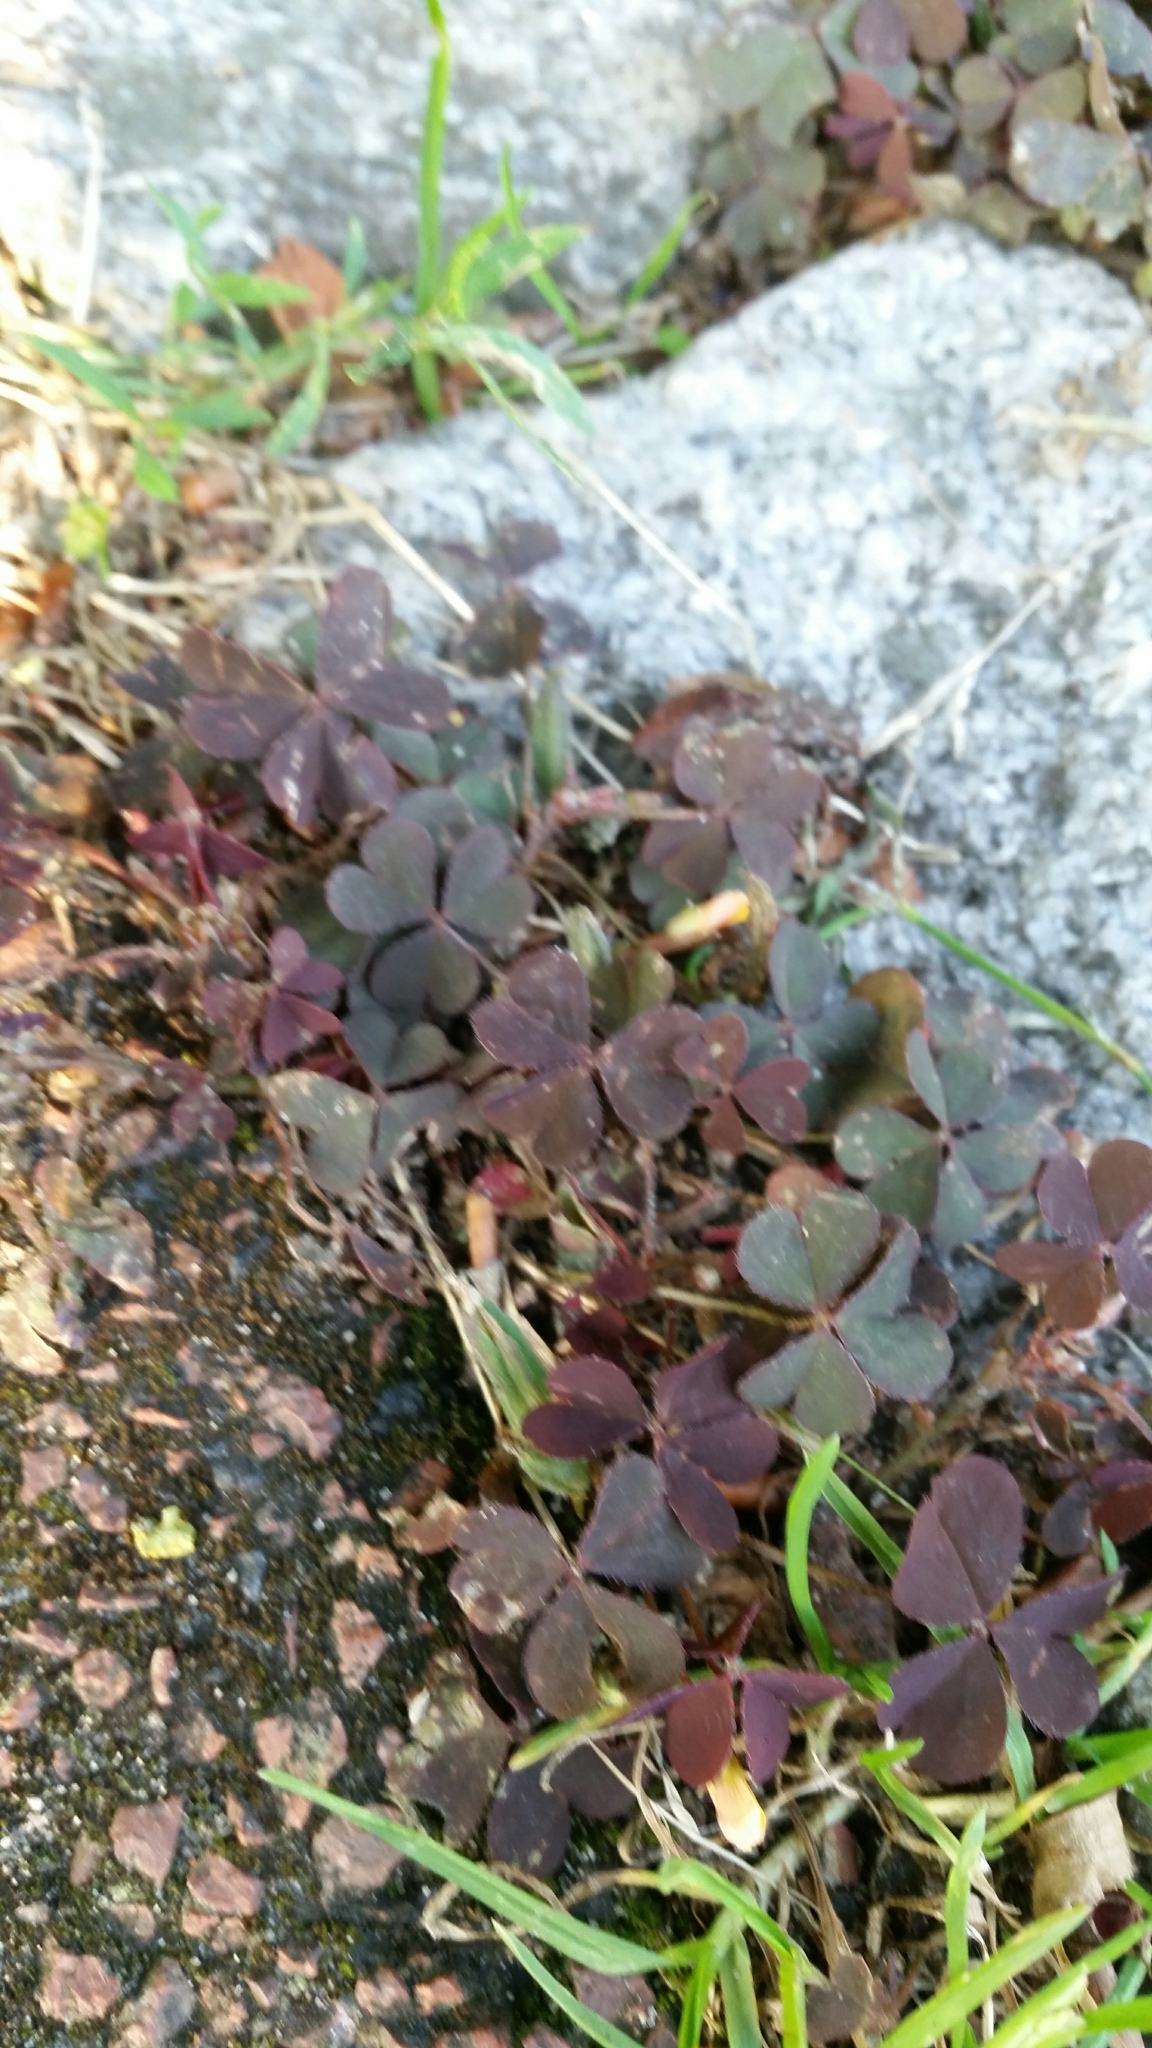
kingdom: Plantae
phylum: Tracheophyta
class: Magnoliopsida
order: Oxalidales
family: Oxalidaceae
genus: Oxalis
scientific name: Oxalis corniculata
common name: Procumbent yellow-sorrel
